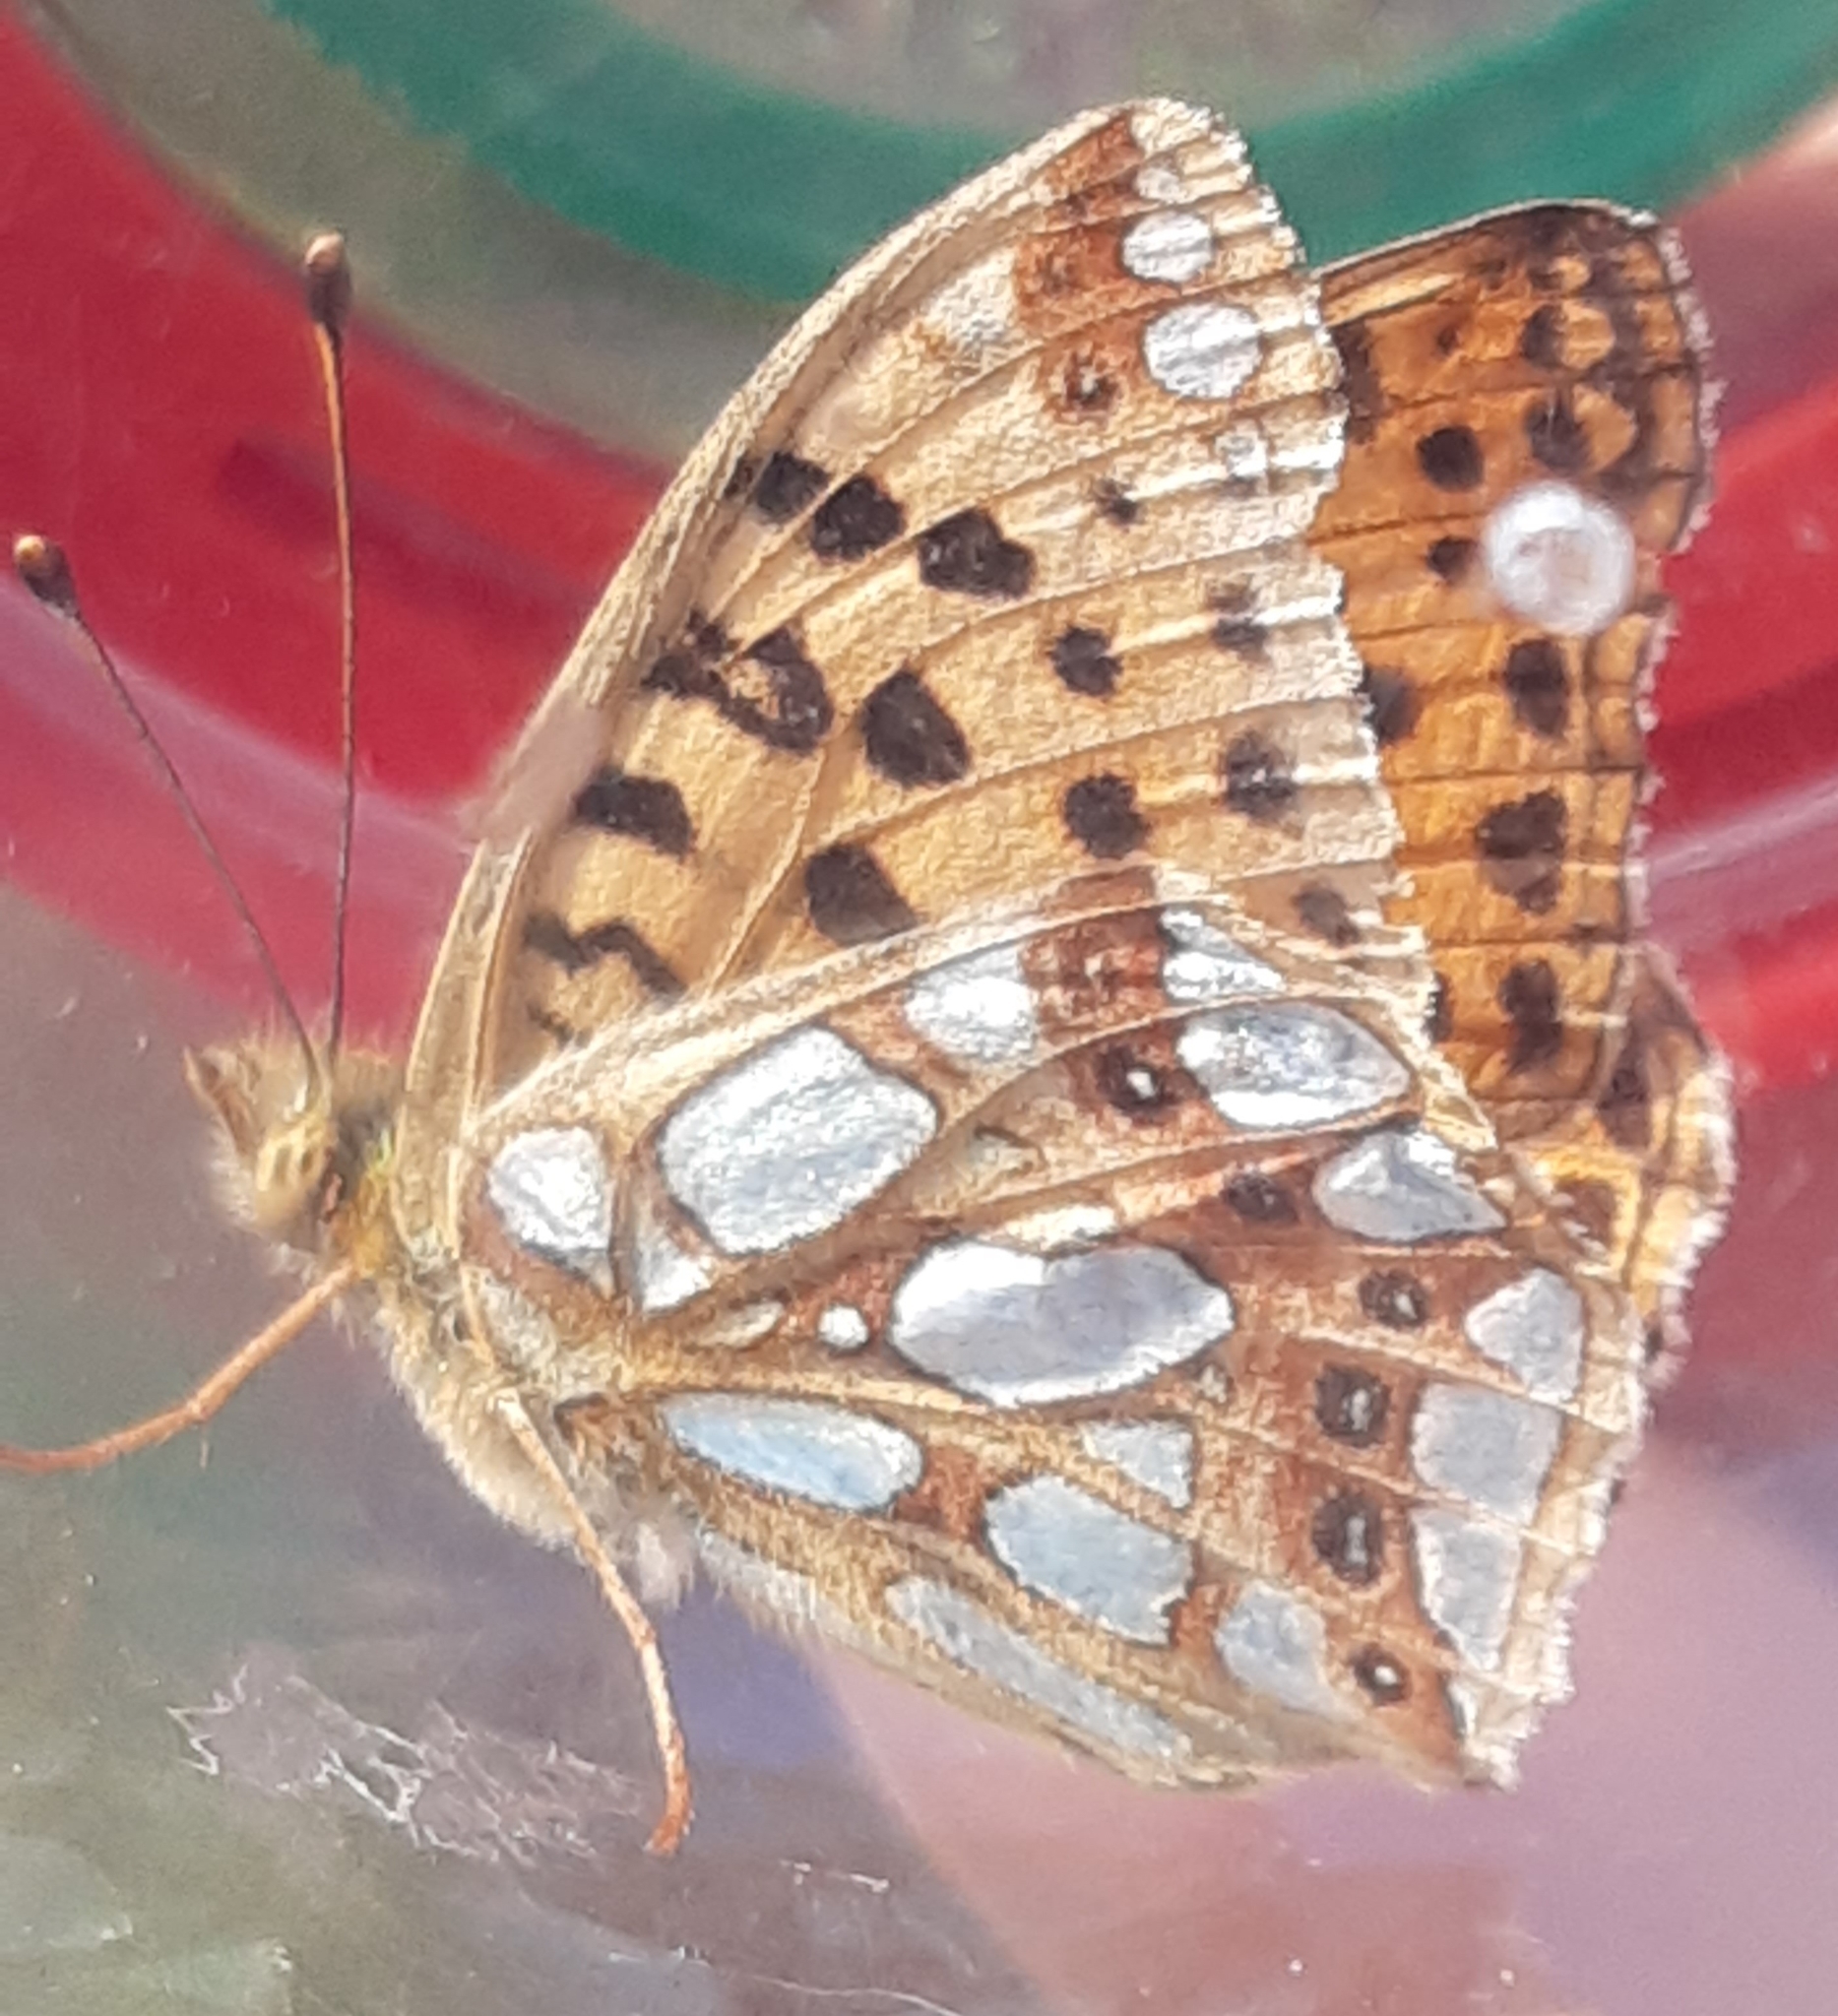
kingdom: Animalia
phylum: Arthropoda
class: Insecta
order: Lepidoptera
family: Nymphalidae
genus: Issoria
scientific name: Issoria lathonia
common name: Queen of spain fritillary
